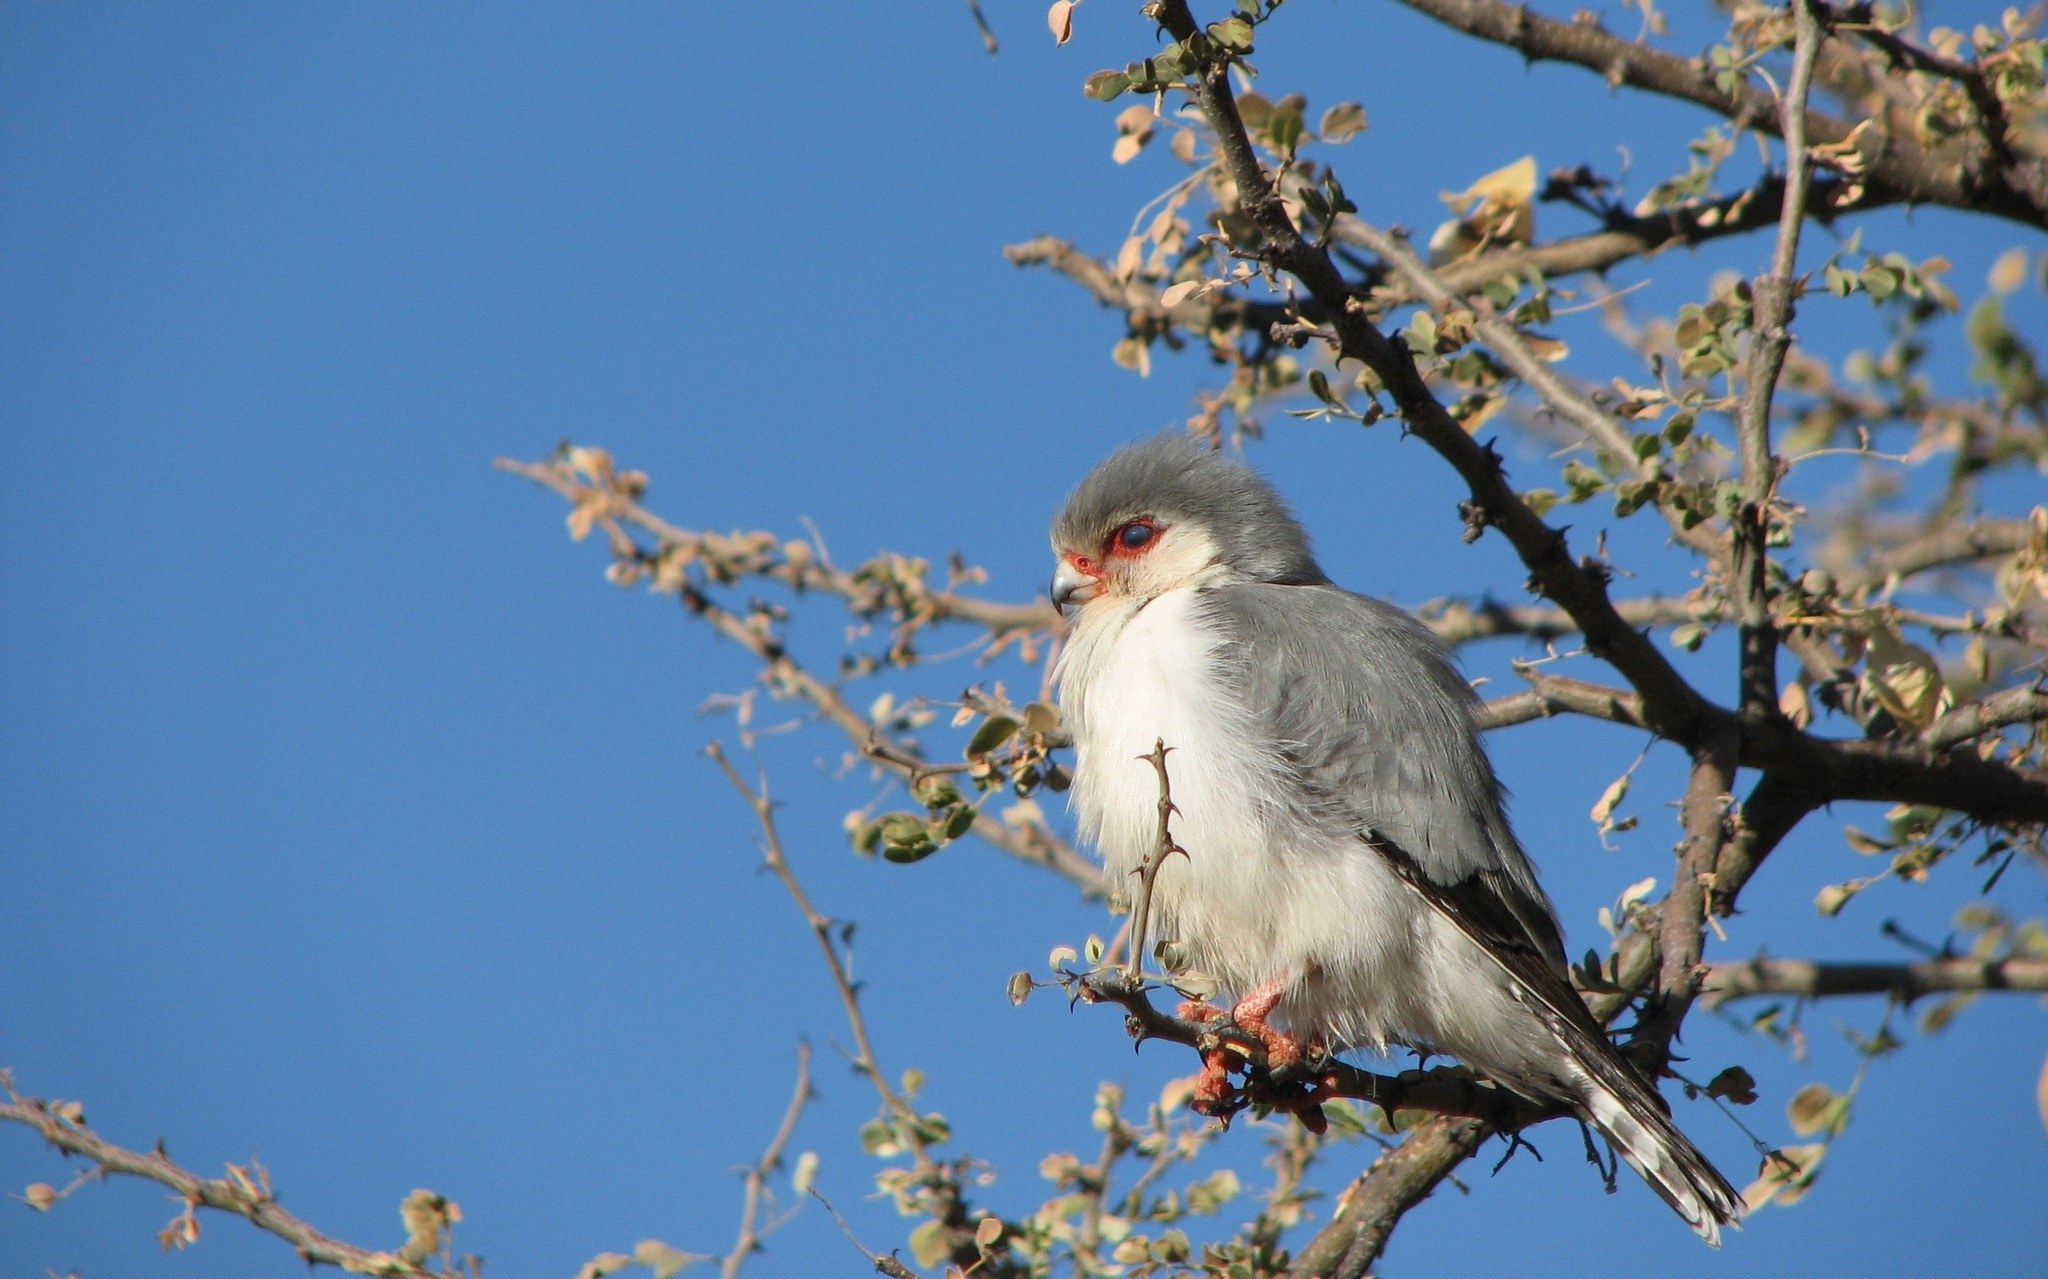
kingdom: Animalia
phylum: Chordata
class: Aves
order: Falconiformes
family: Falconidae
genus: Polihierax
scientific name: Polihierax semitorquatus
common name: Pygmy falcon
